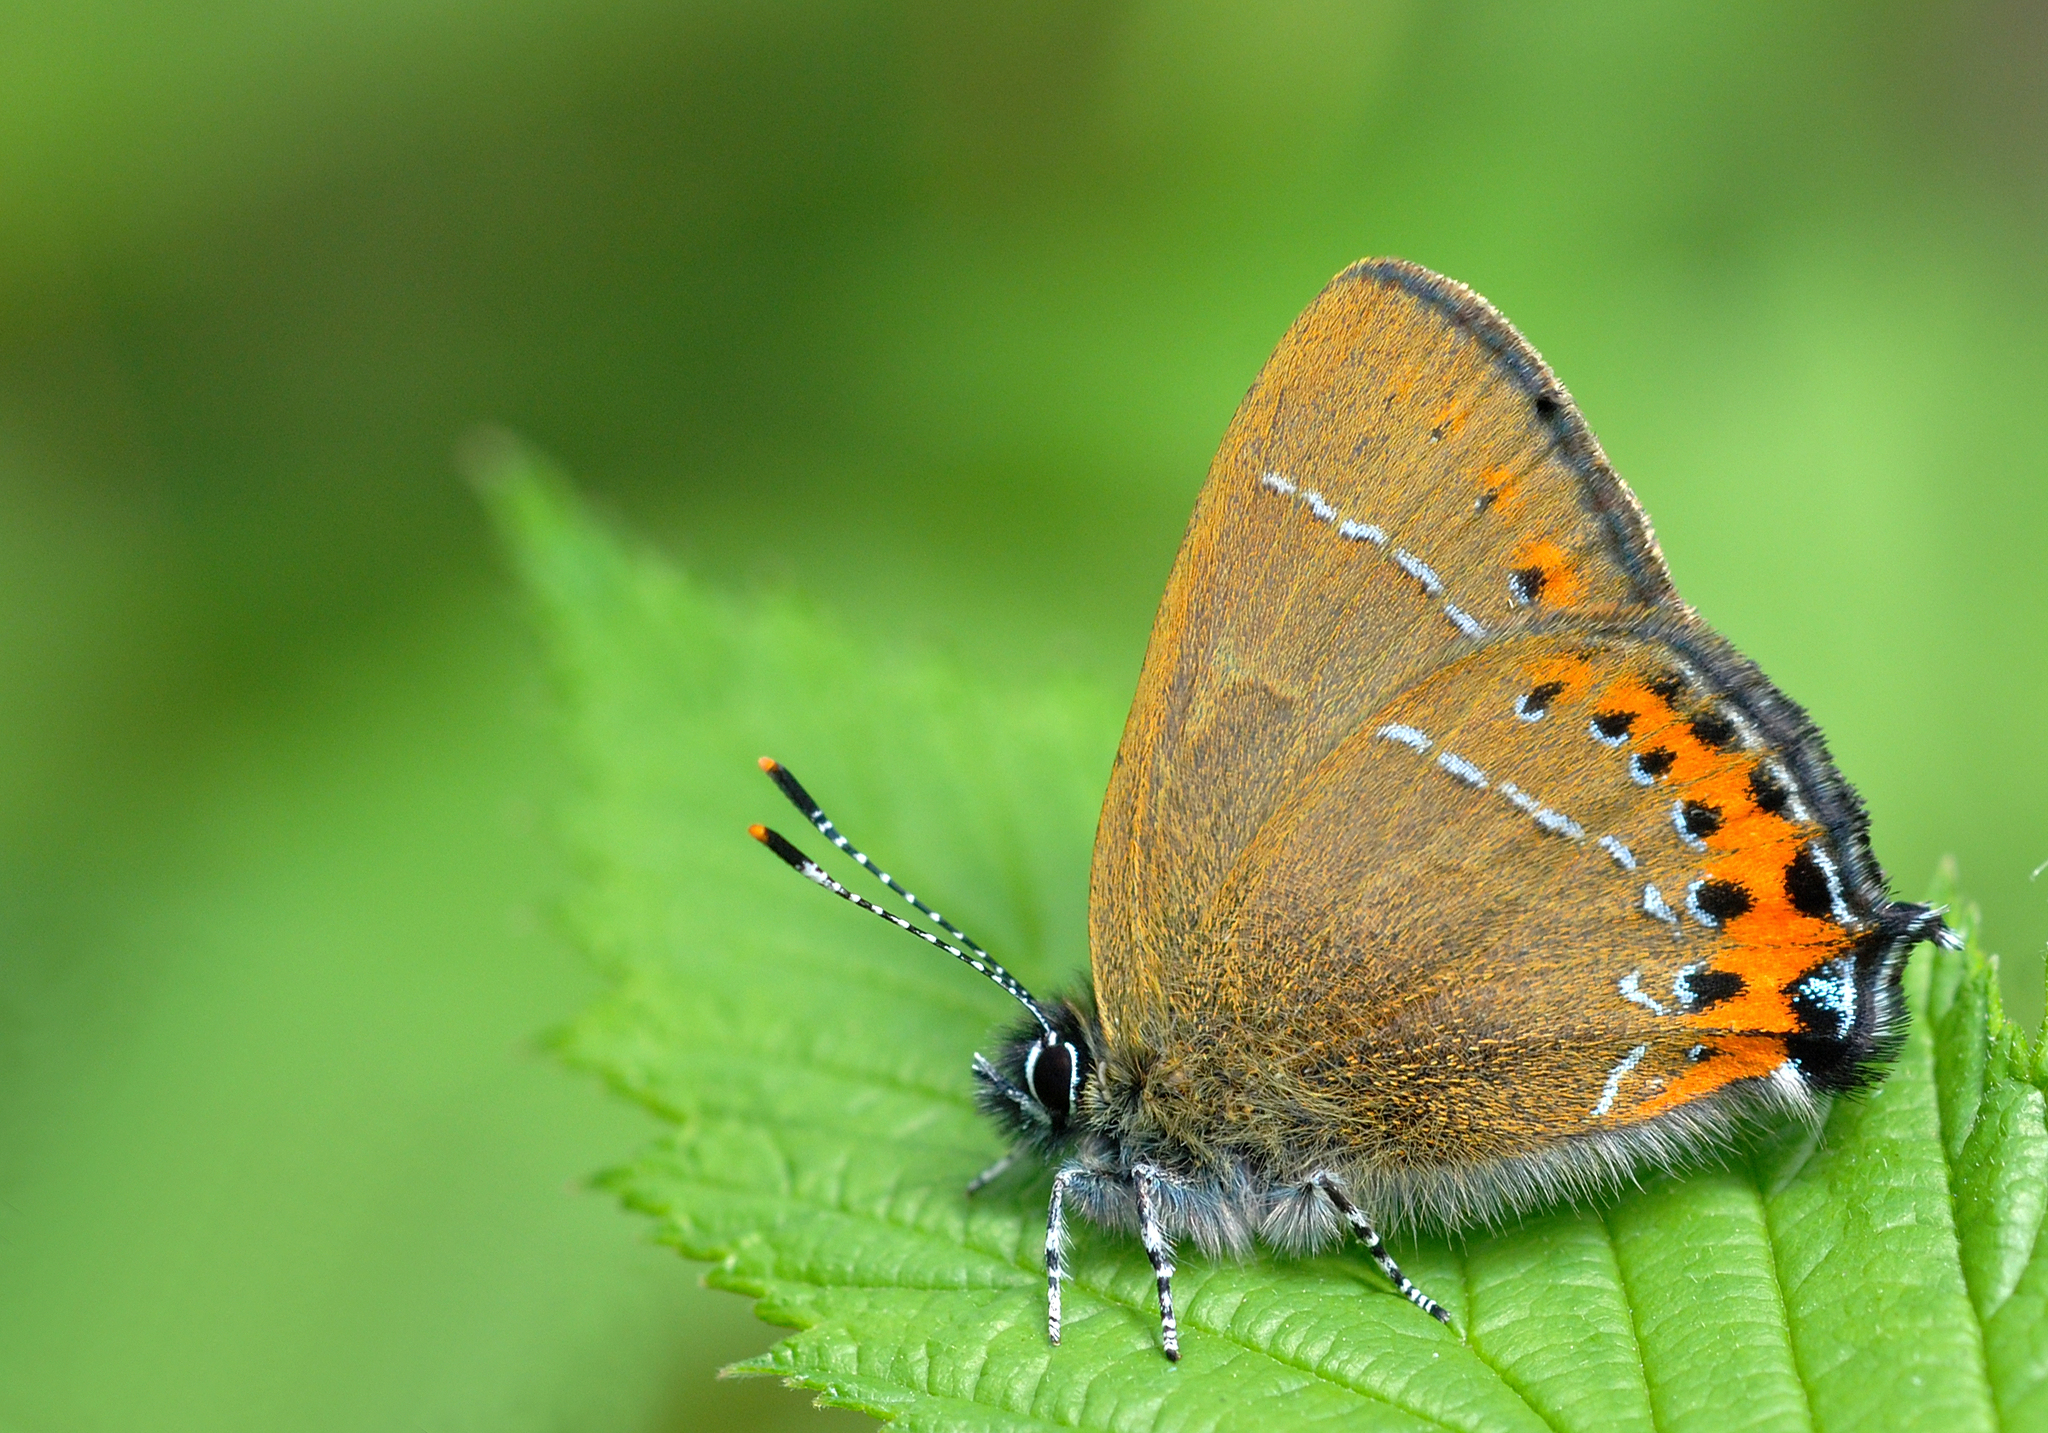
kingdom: Animalia
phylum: Arthropoda
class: Insecta
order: Lepidoptera
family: Lycaenidae
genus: Fixsenia
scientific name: Fixsenia pruni
